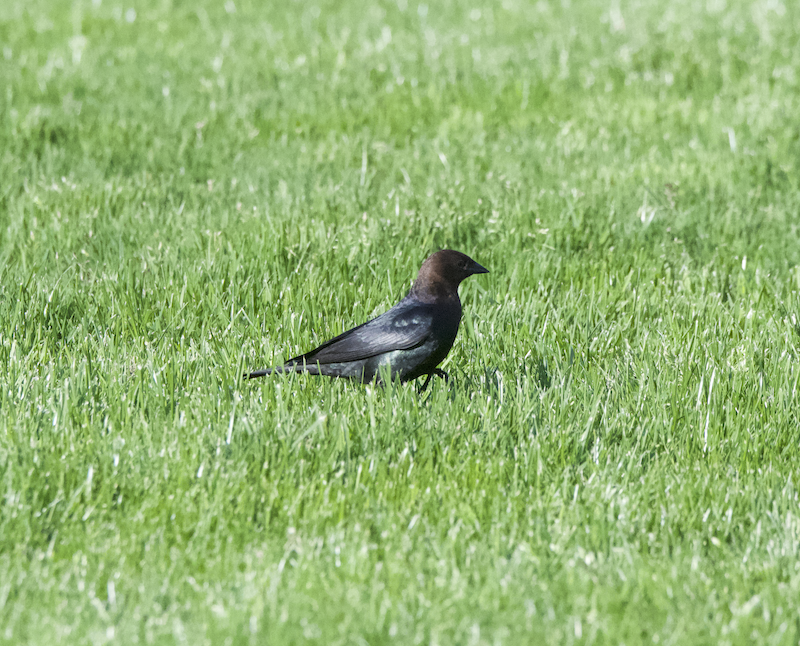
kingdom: Animalia
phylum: Chordata
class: Aves
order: Passeriformes
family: Icteridae
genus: Molothrus
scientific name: Molothrus ater
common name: Brown-headed cowbird
